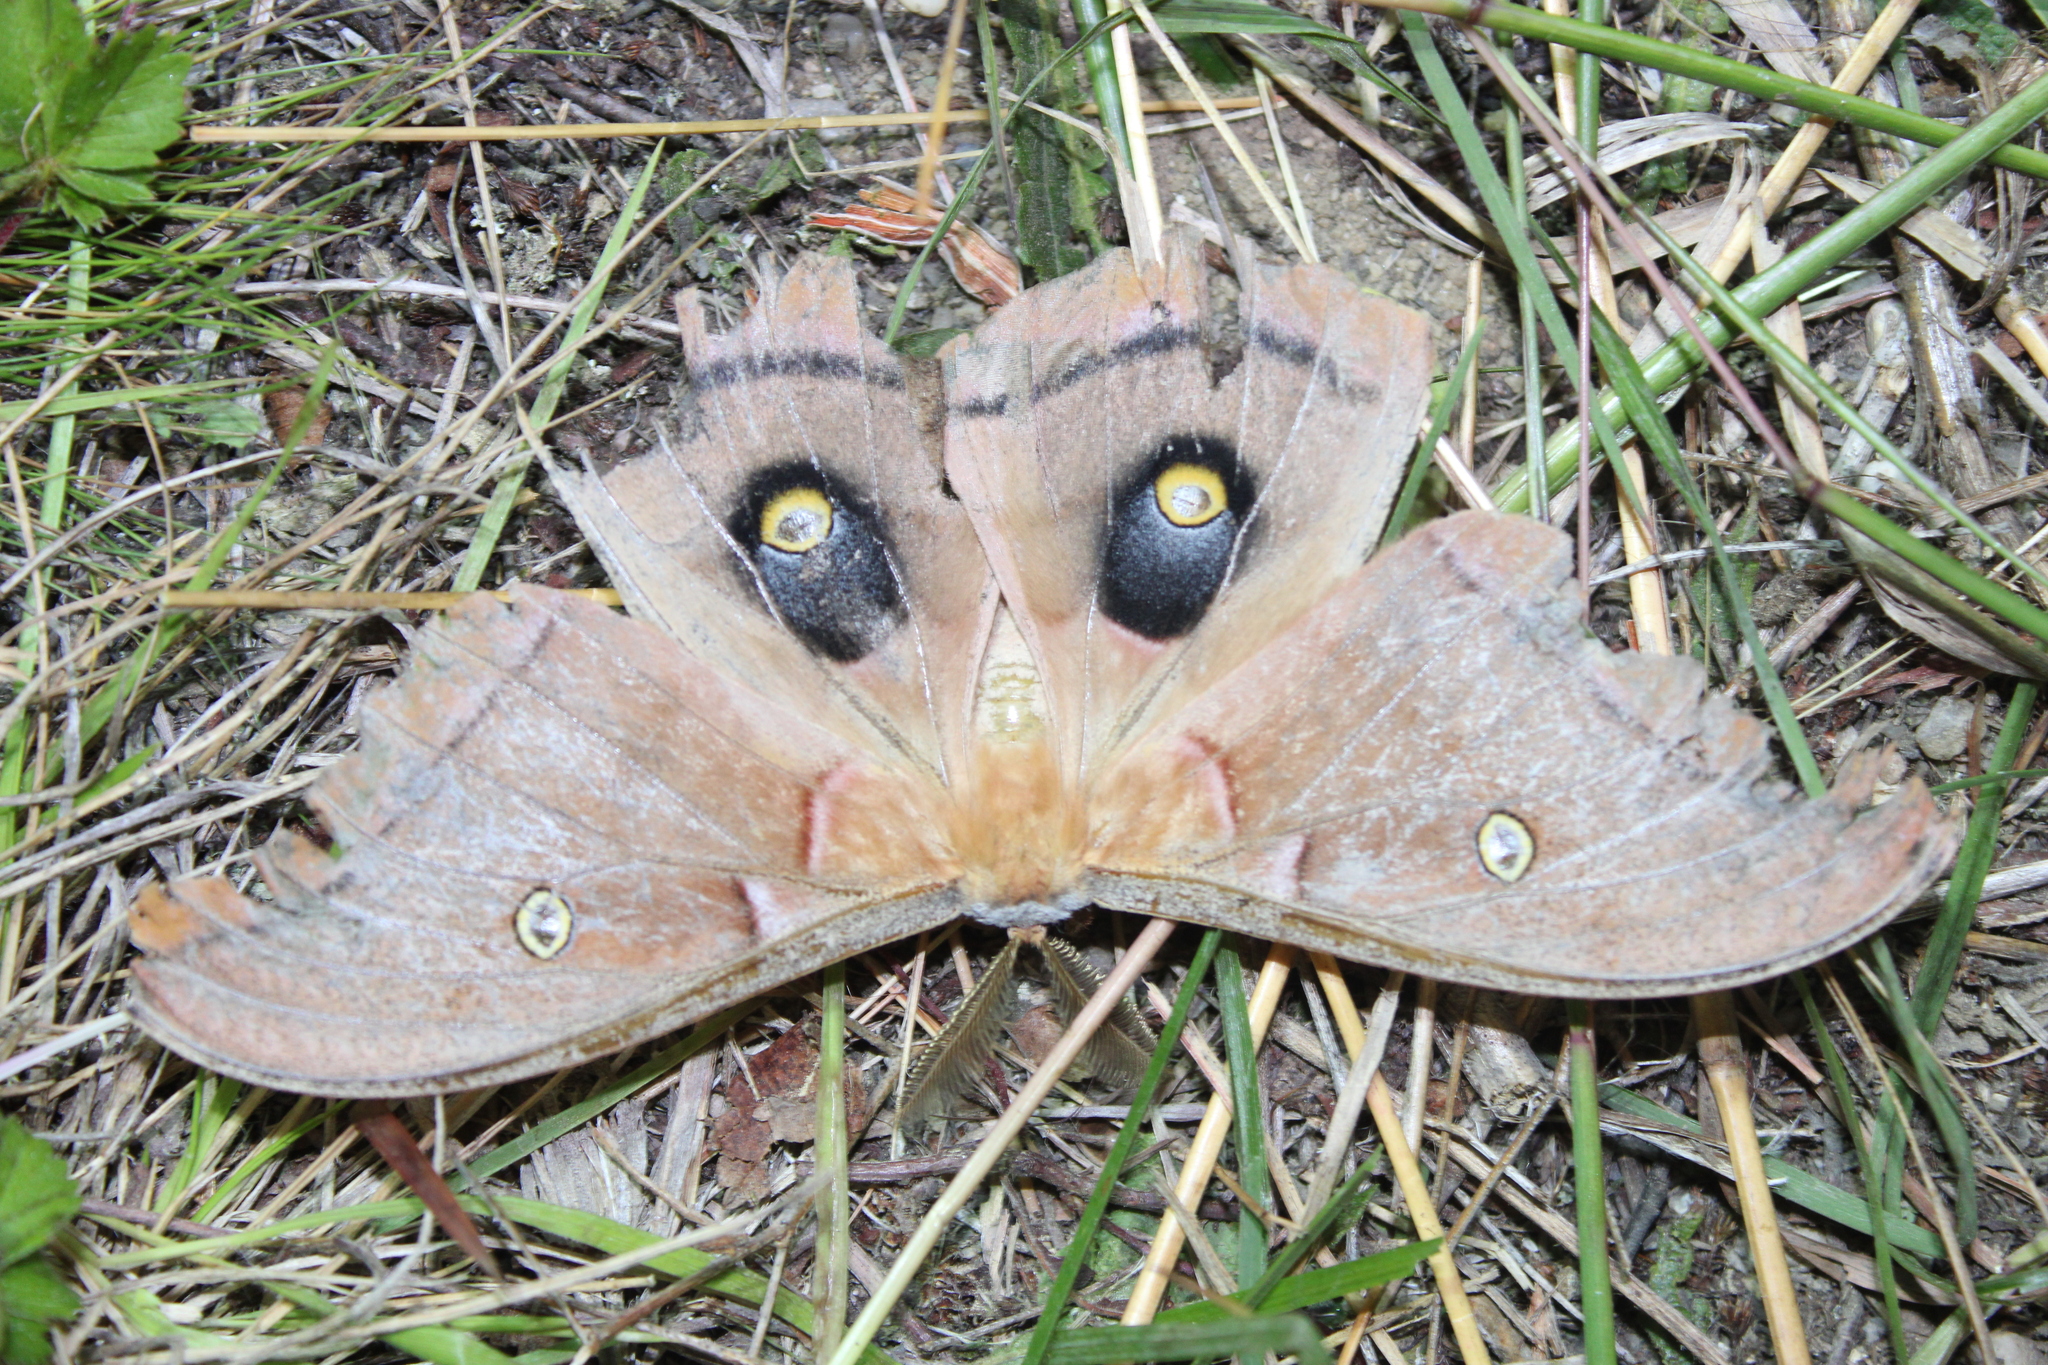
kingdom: Animalia
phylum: Arthropoda
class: Insecta
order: Lepidoptera
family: Saturniidae
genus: Antheraea
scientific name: Antheraea polyphemus
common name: Polyphemus moth
